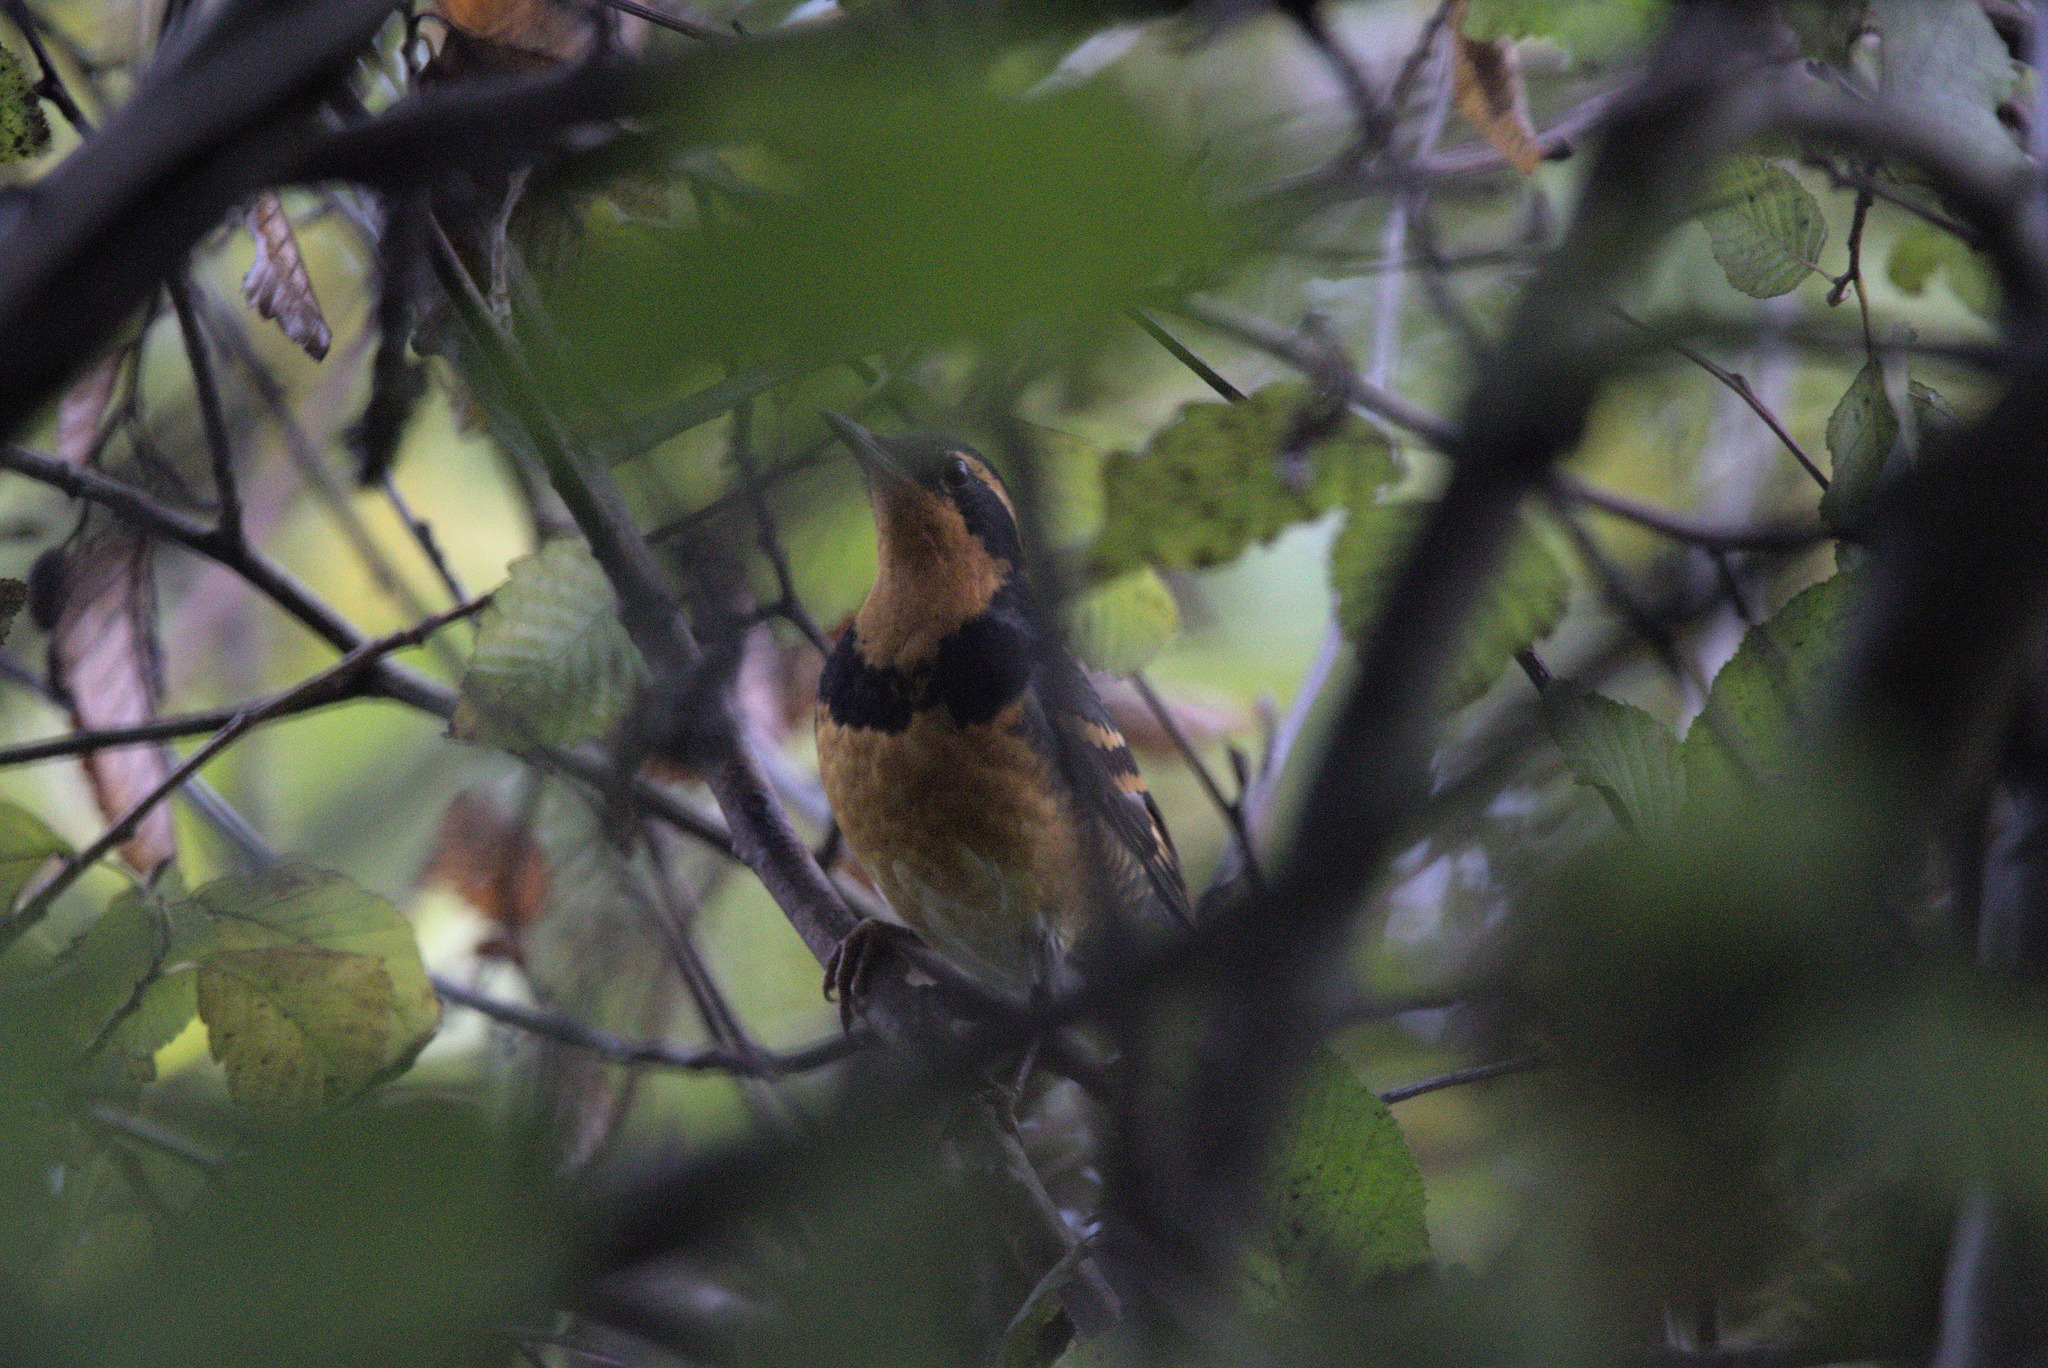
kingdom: Animalia
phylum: Chordata
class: Aves
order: Passeriformes
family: Turdidae
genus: Ixoreus
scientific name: Ixoreus naevius
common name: Varied thrush
